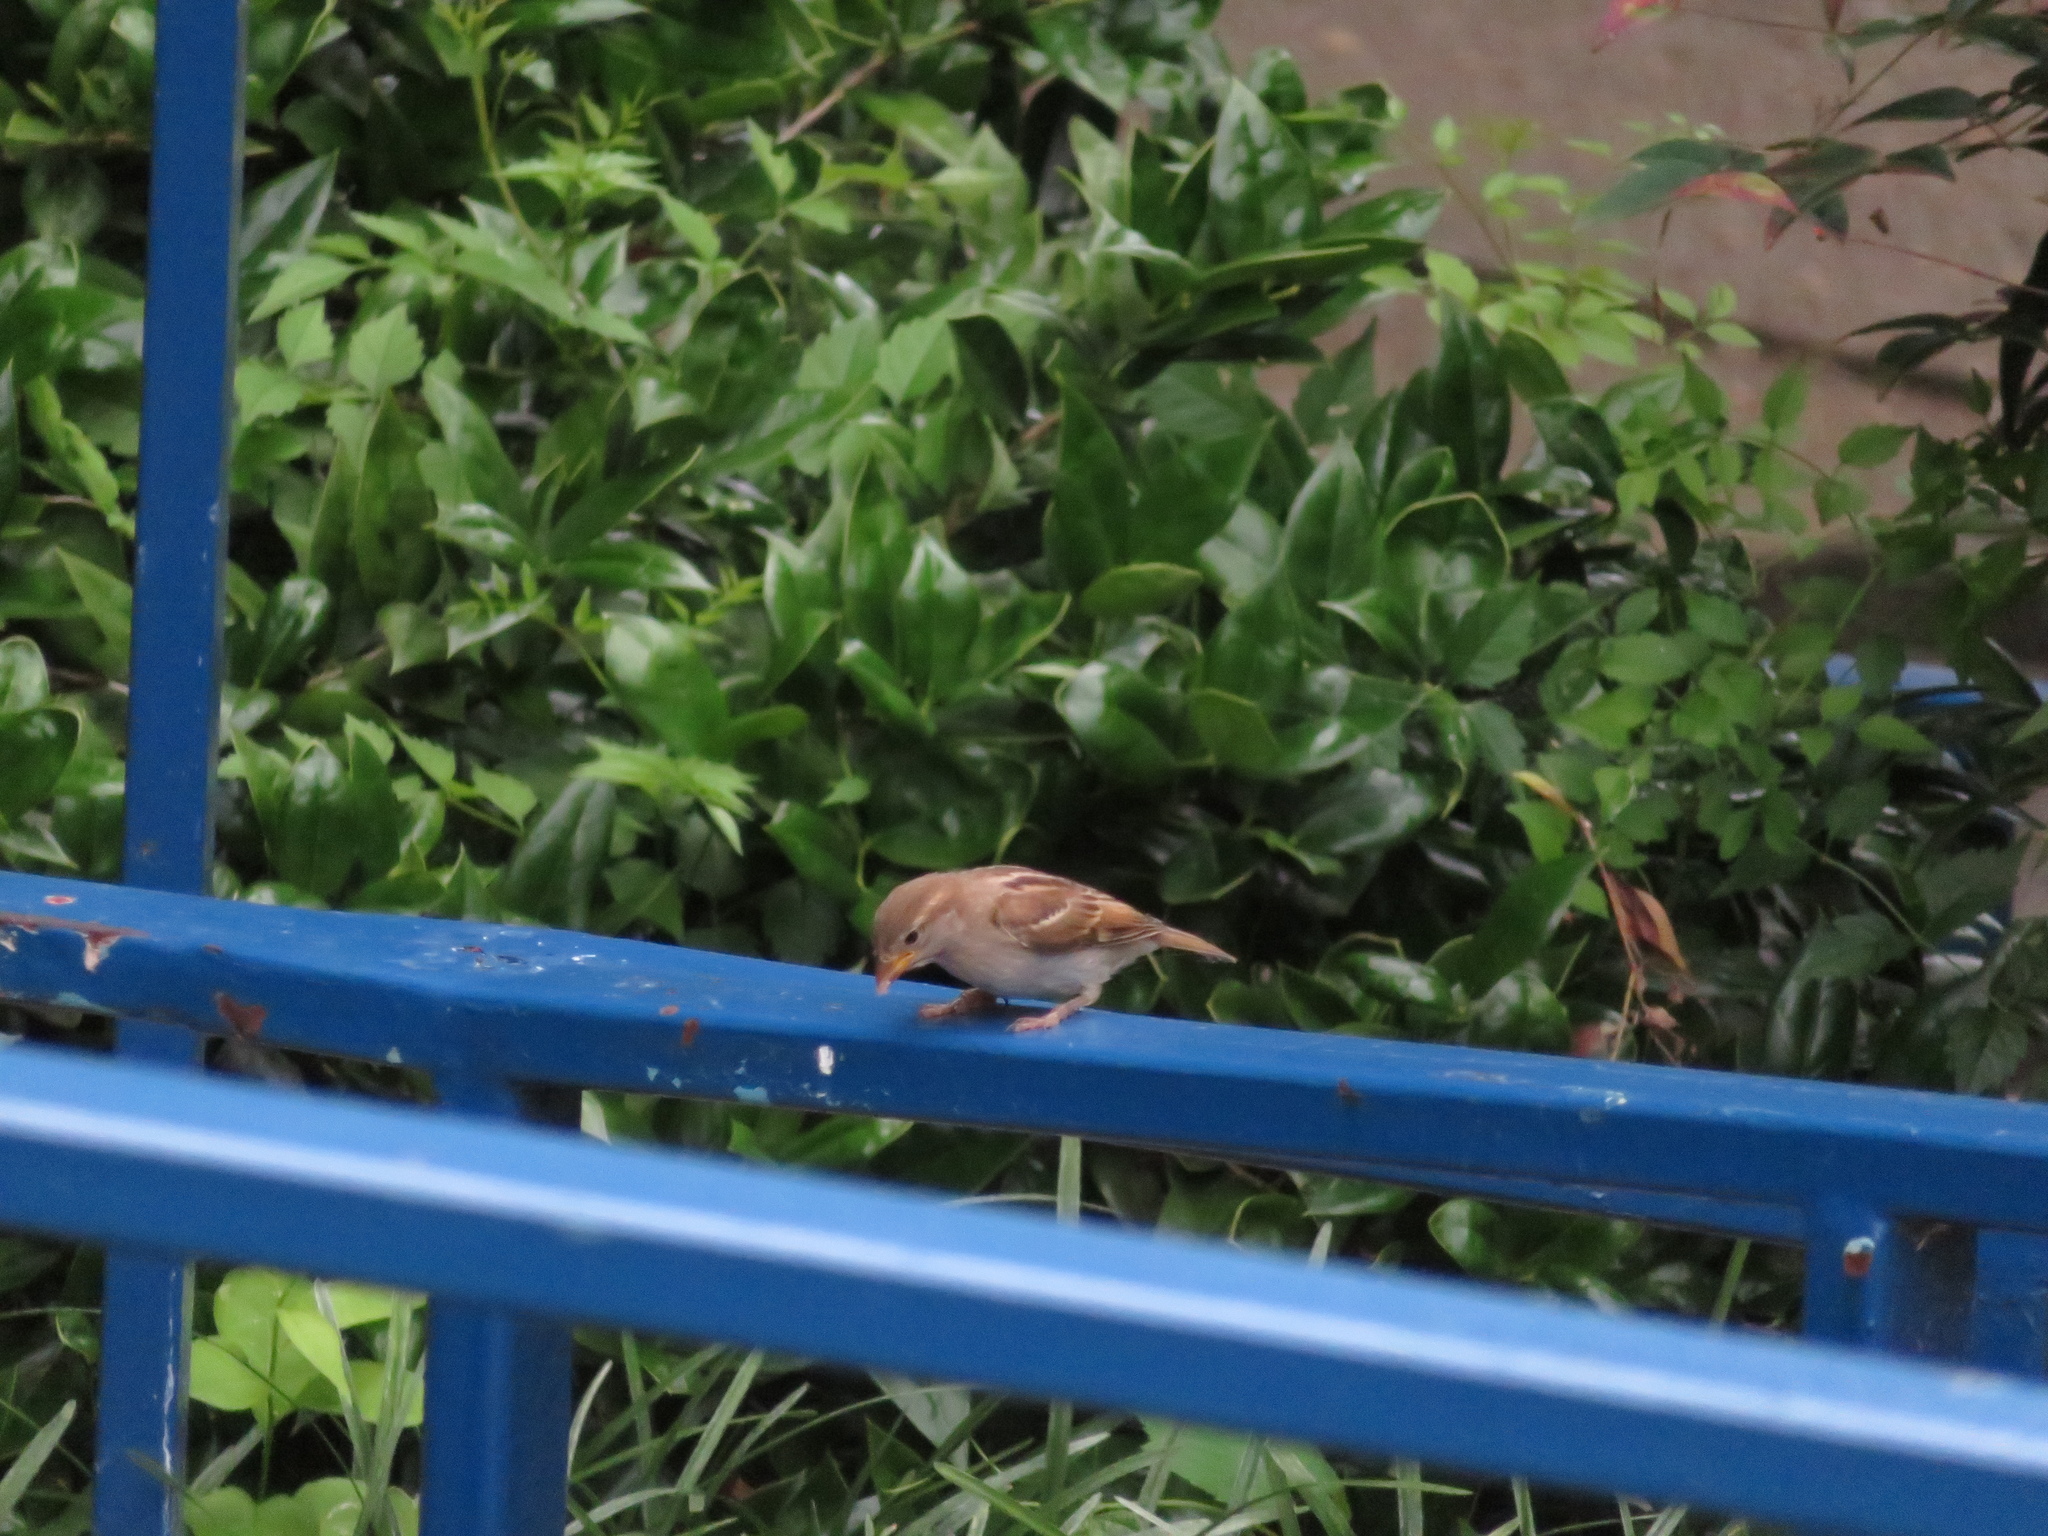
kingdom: Animalia
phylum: Chordata
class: Aves
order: Passeriformes
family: Passeridae
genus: Passer
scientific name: Passer domesticus
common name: House sparrow
